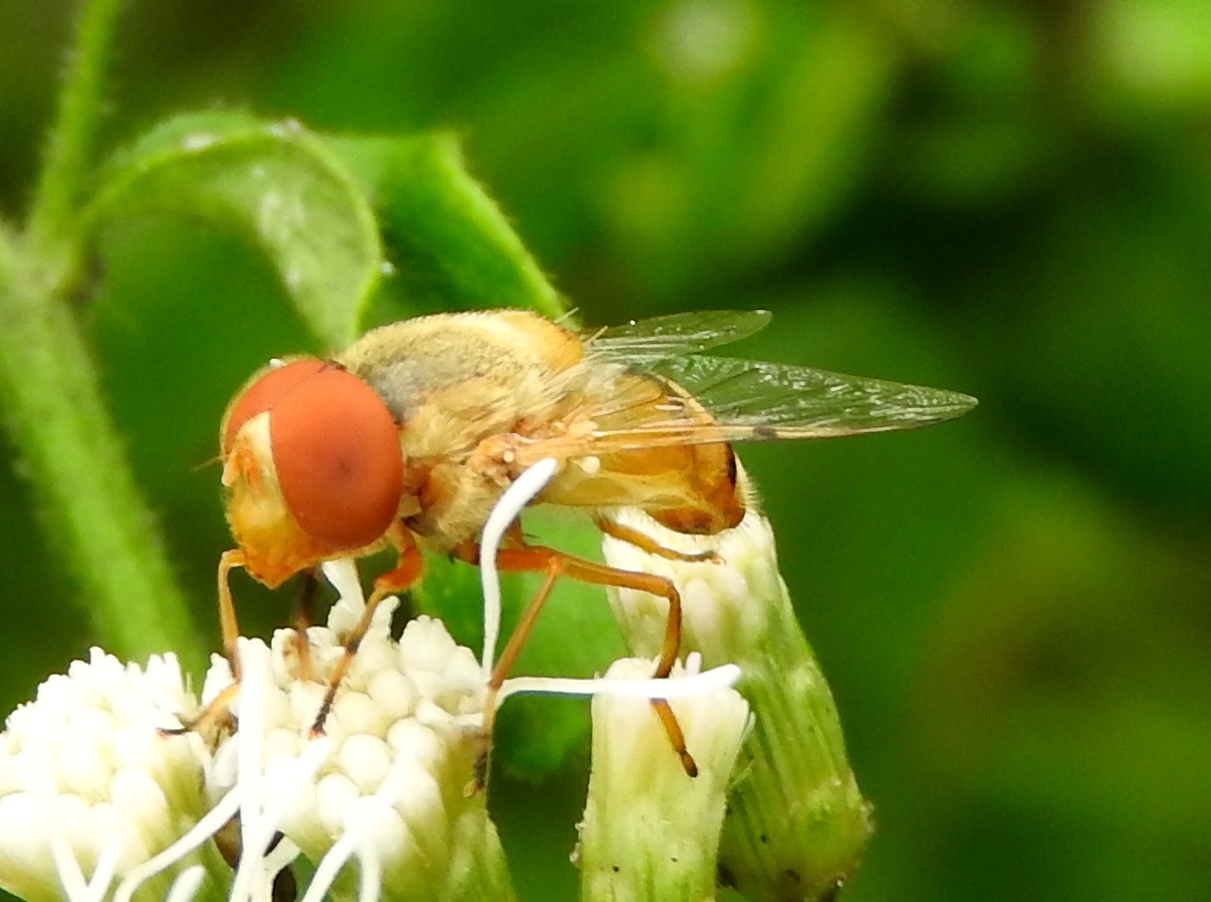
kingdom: Animalia
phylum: Arthropoda
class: Insecta
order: Diptera
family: Syrphidae
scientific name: Syrphidae
